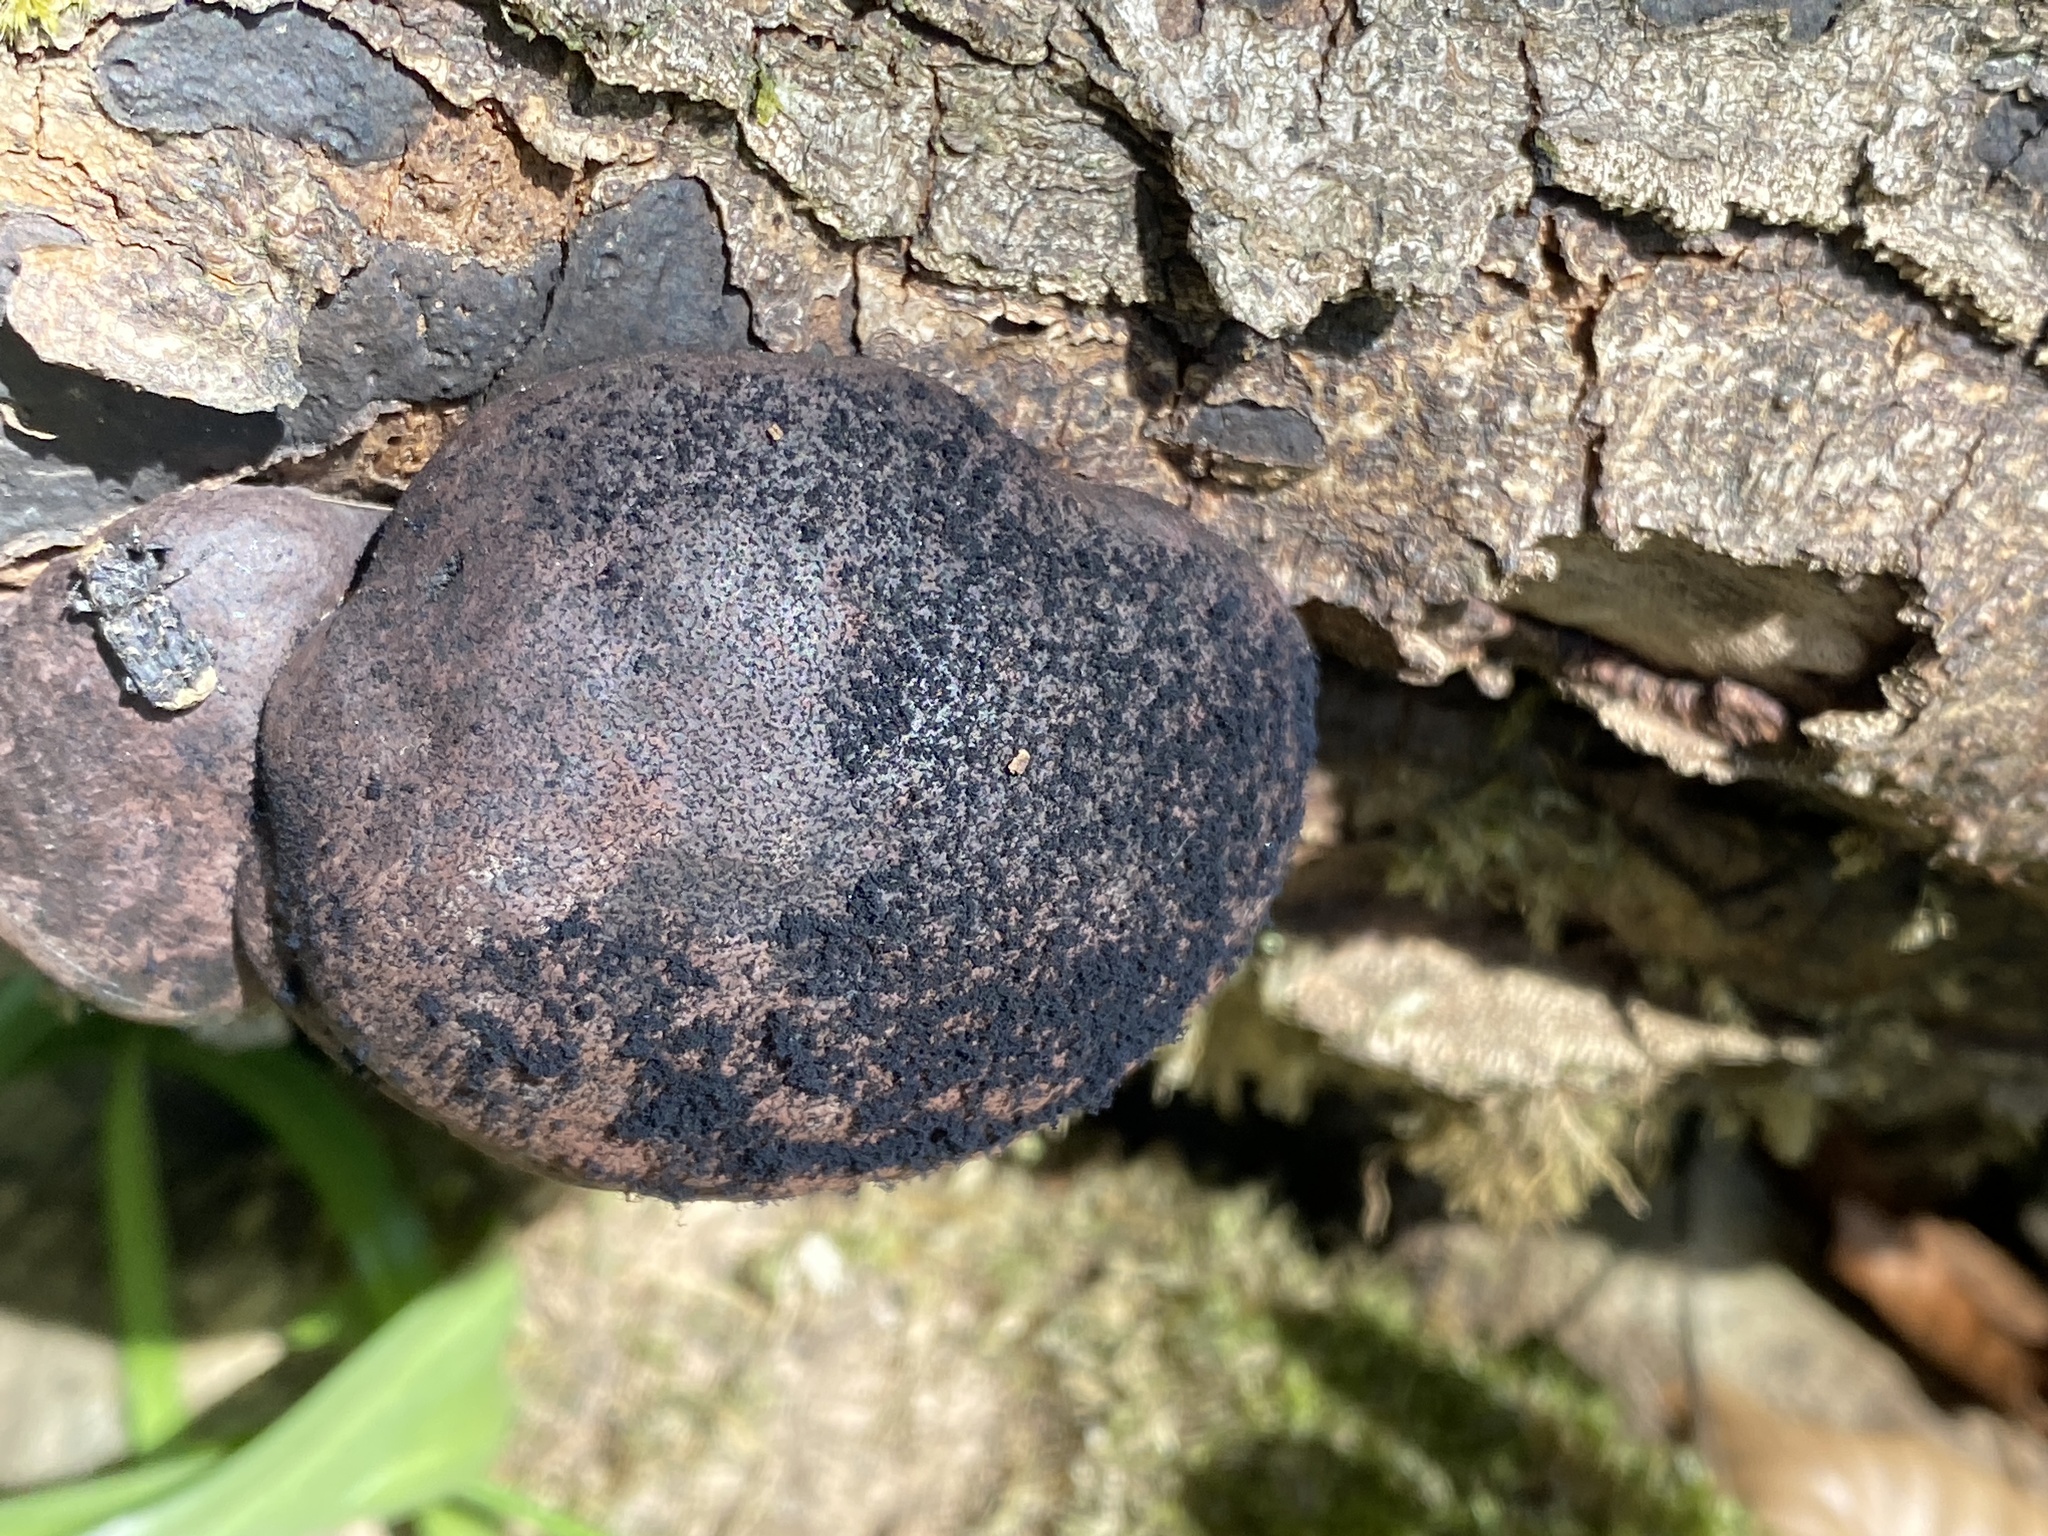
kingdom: Fungi
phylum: Ascomycota
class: Sordariomycetes
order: Xylariales
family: Hypoxylaceae
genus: Daldinia
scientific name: Daldinia concentrica
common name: Cramp balls
